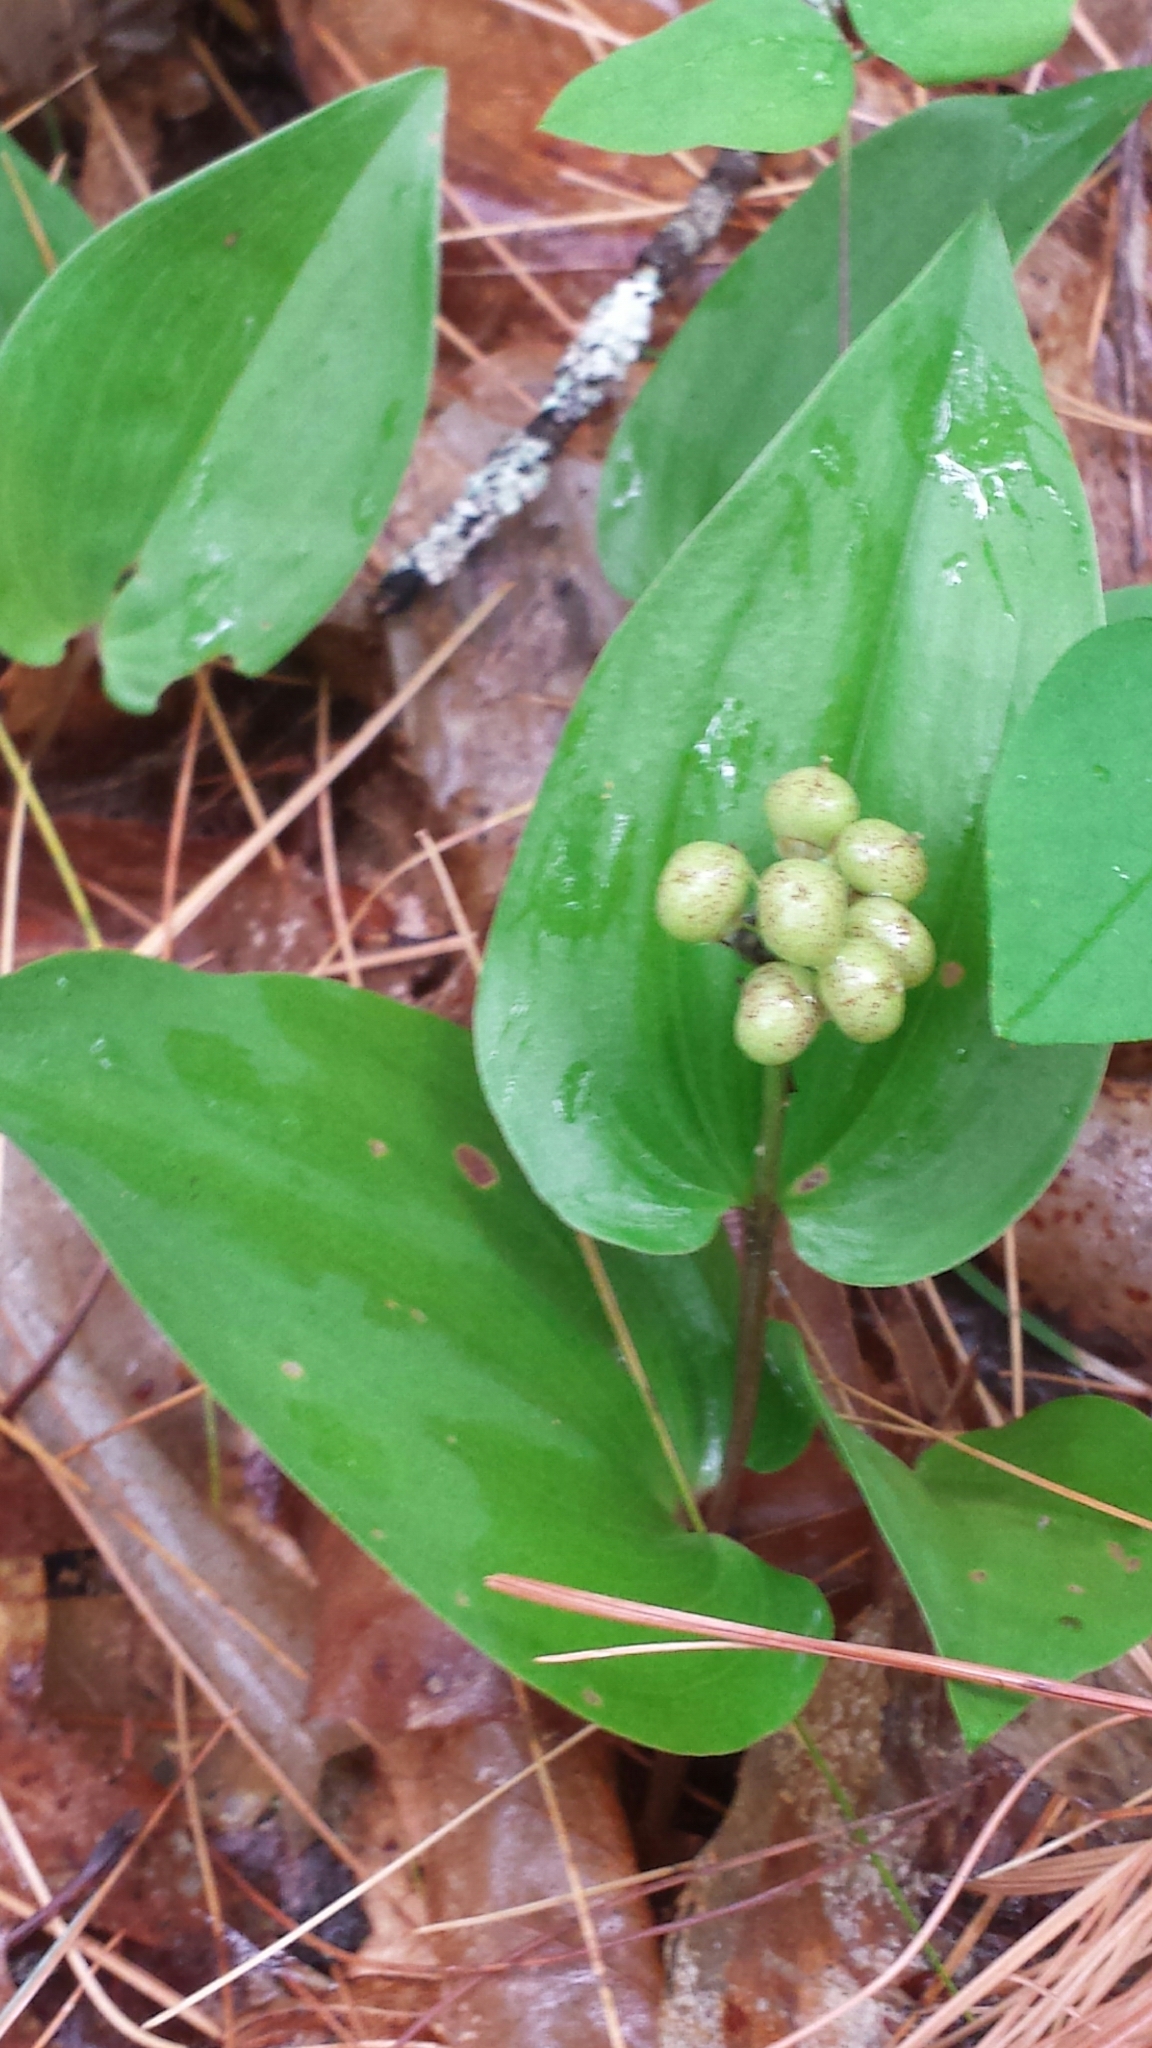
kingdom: Plantae
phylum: Tracheophyta
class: Liliopsida
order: Asparagales
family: Asparagaceae
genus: Maianthemum
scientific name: Maianthemum canadense
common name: False lily-of-the-valley
